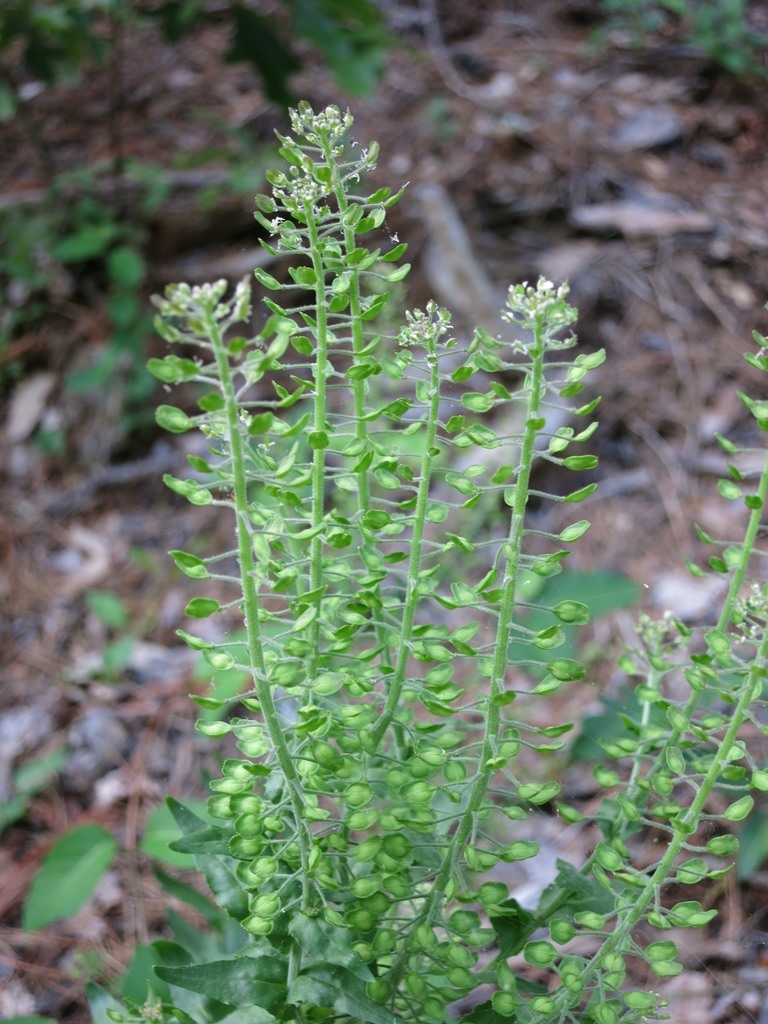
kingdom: Plantae
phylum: Tracheophyta
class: Magnoliopsida
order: Brassicales
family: Brassicaceae
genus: Lepidium
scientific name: Lepidium campestre
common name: Field pepperwort
